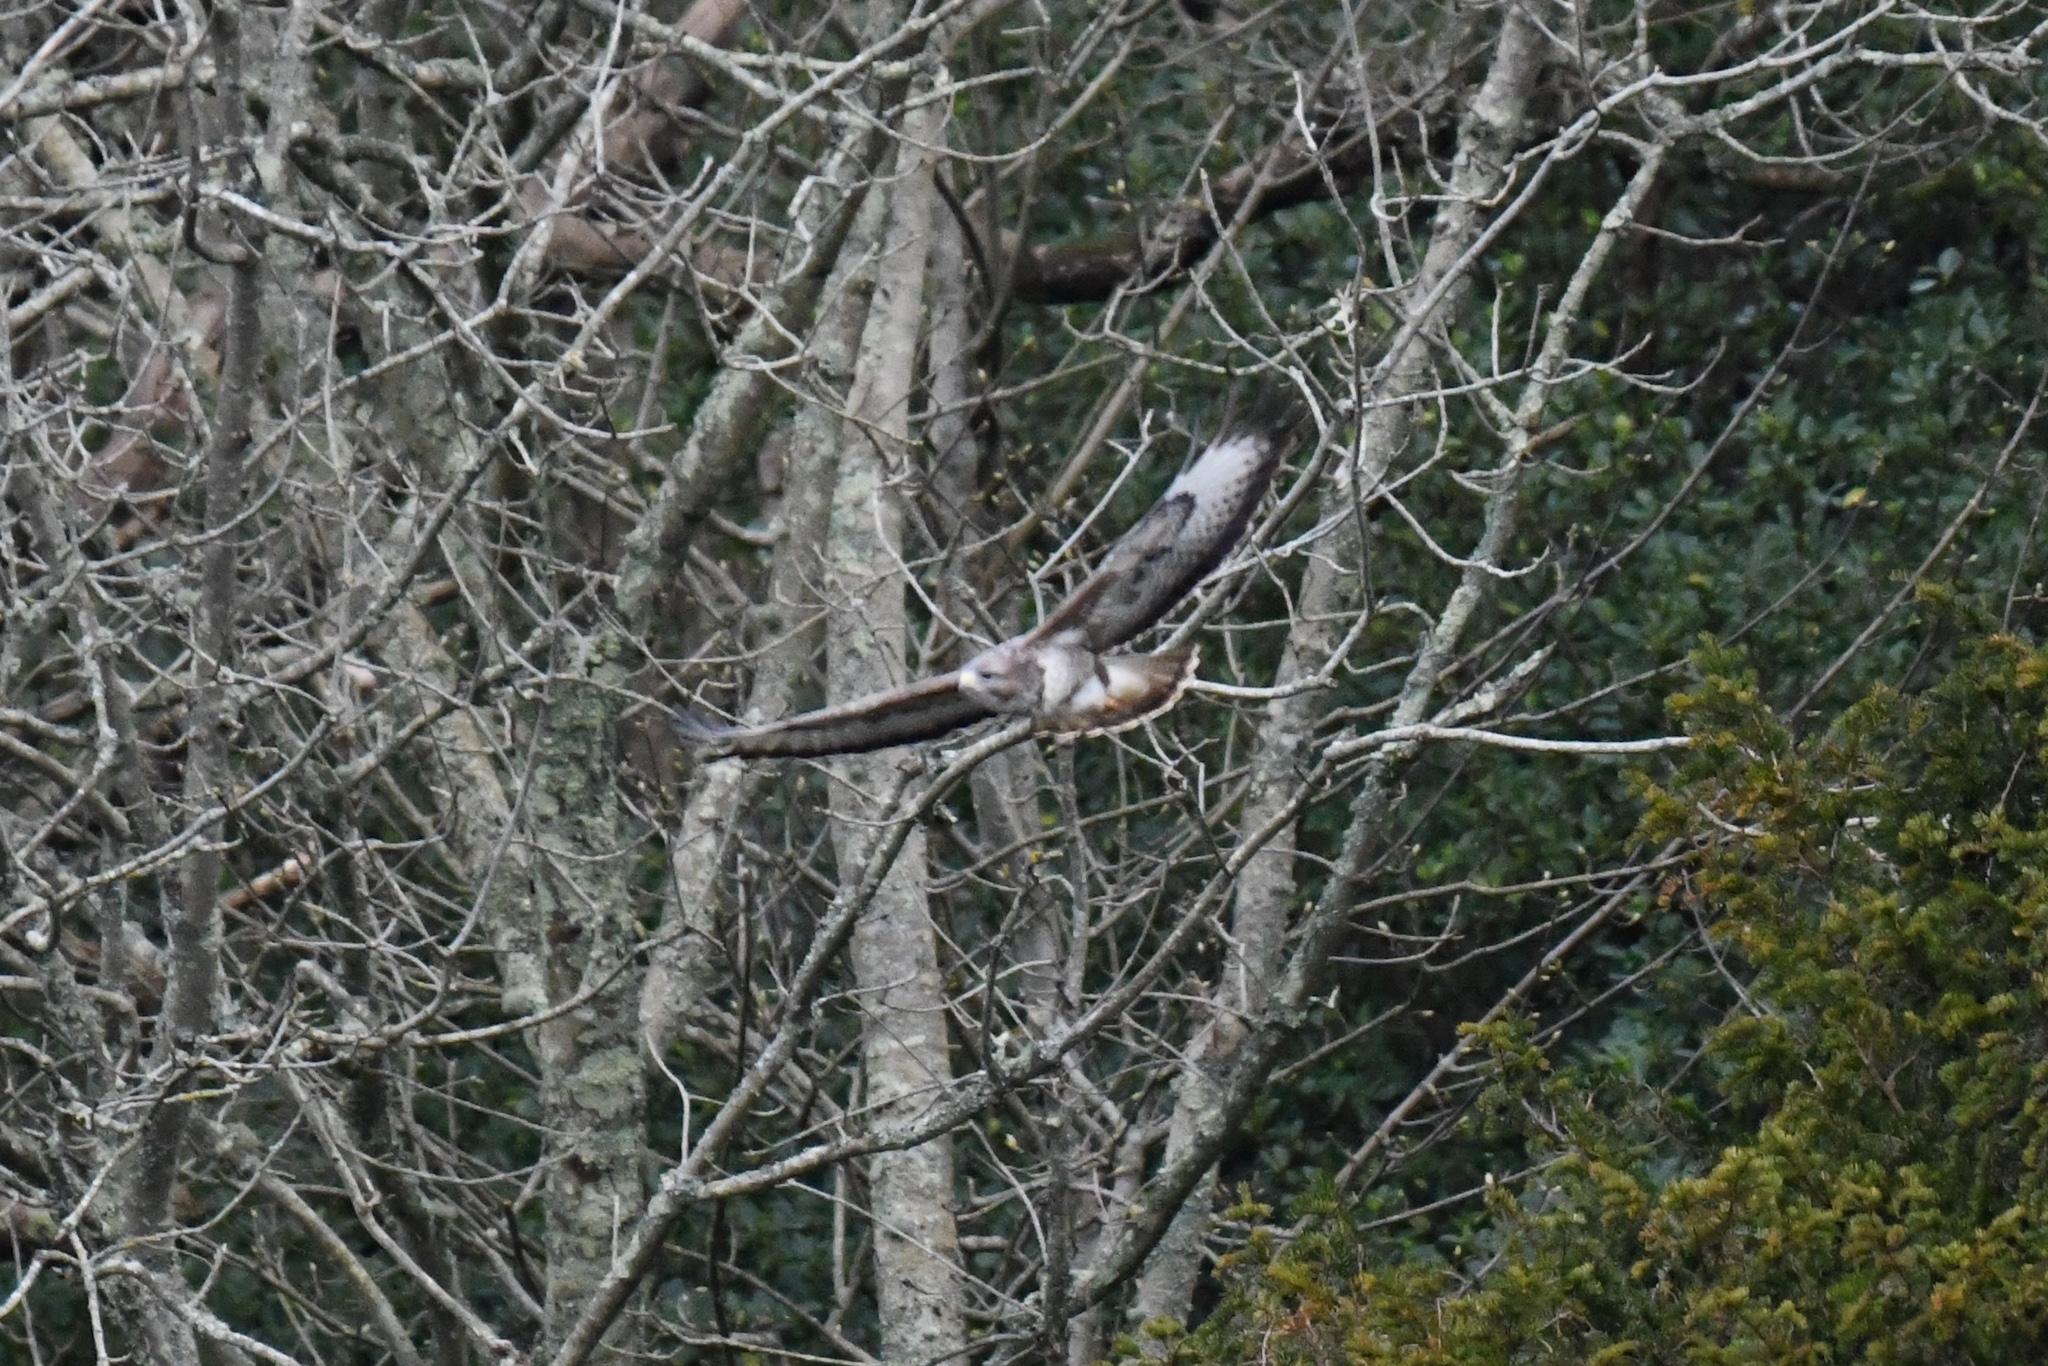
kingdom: Animalia
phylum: Chordata
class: Aves
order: Accipitriformes
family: Accipitridae
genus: Buteo
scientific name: Buteo buteo
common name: Common buzzard
